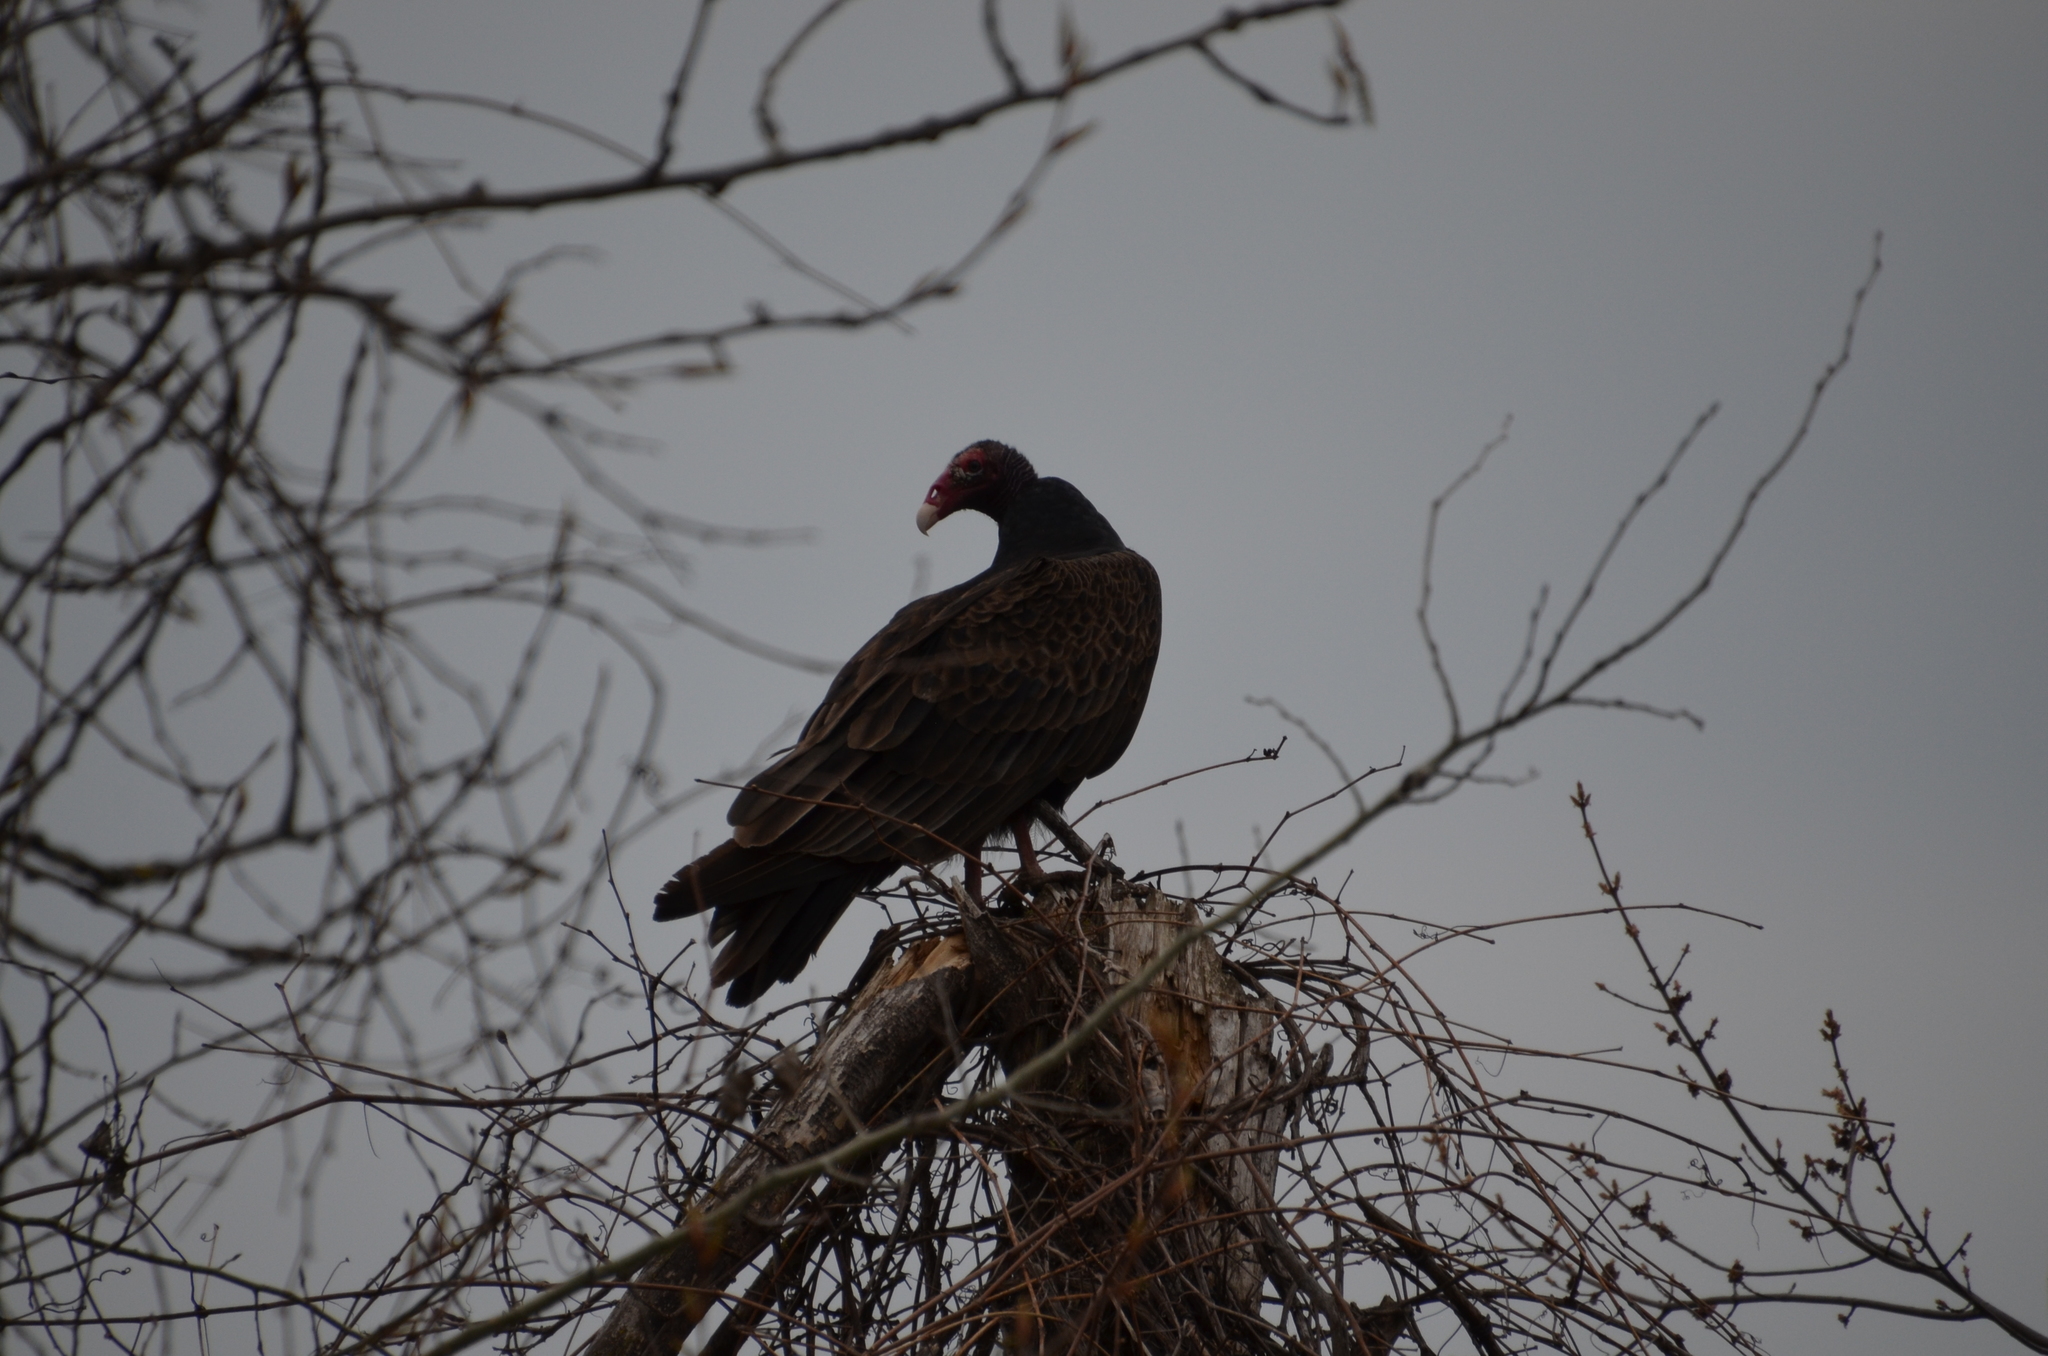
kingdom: Animalia
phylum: Chordata
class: Aves
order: Accipitriformes
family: Cathartidae
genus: Cathartes
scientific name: Cathartes aura
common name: Turkey vulture
